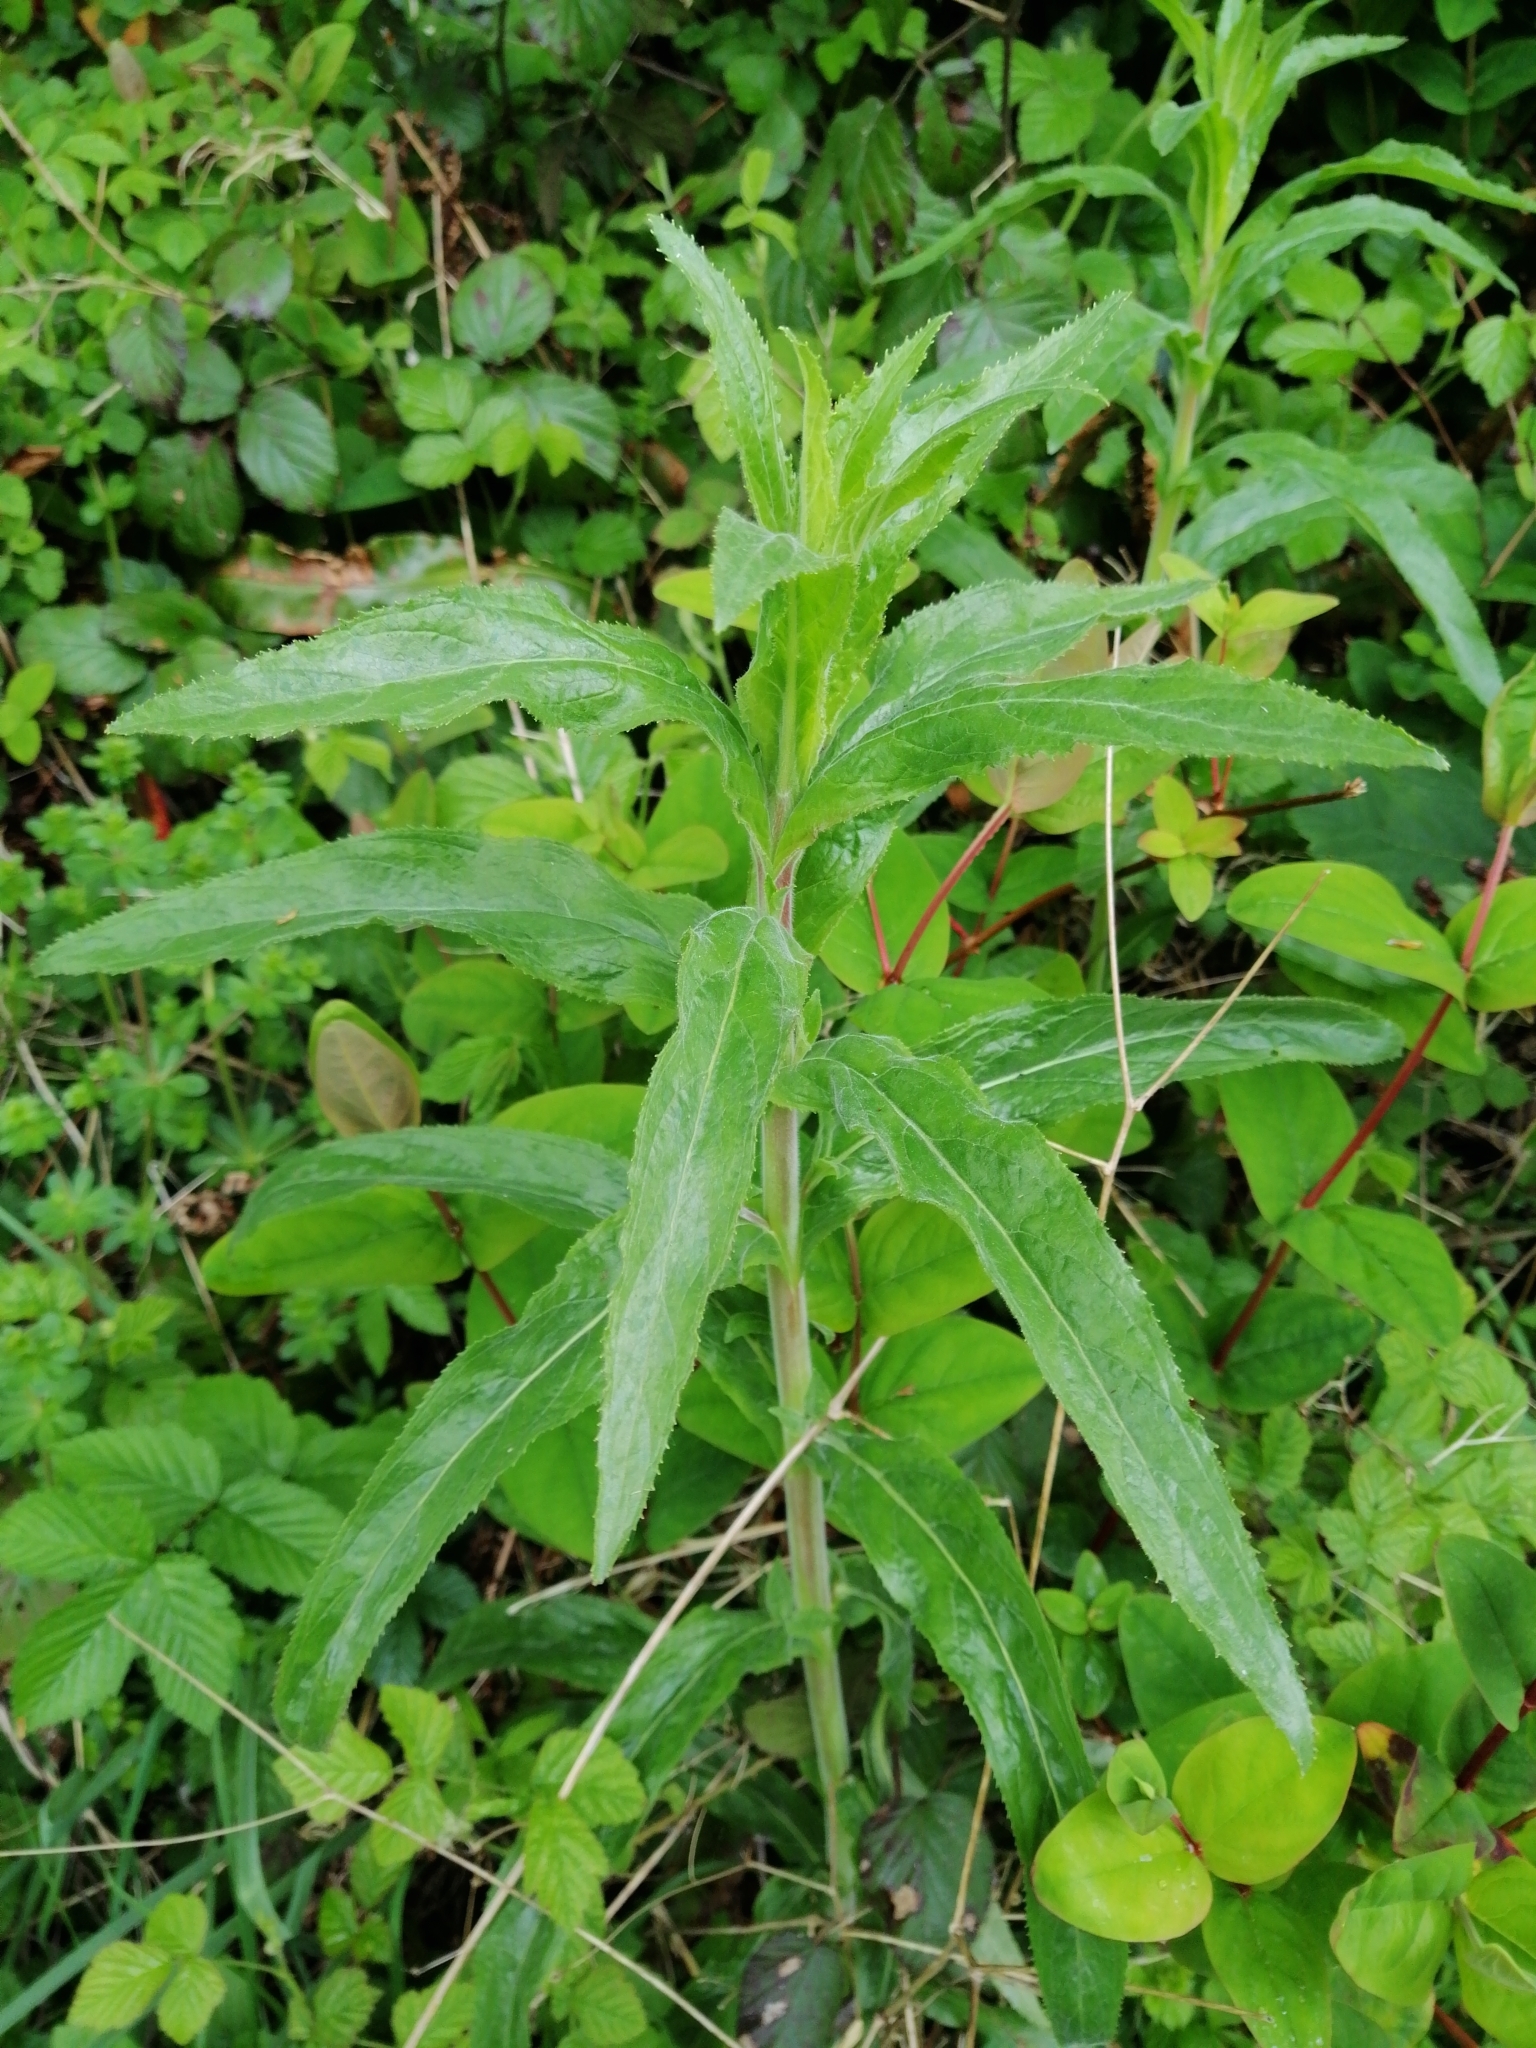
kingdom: Plantae
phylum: Tracheophyta
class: Magnoliopsida
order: Myrtales
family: Onagraceae
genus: Epilobium
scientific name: Epilobium hirsutum
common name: Great willowherb
